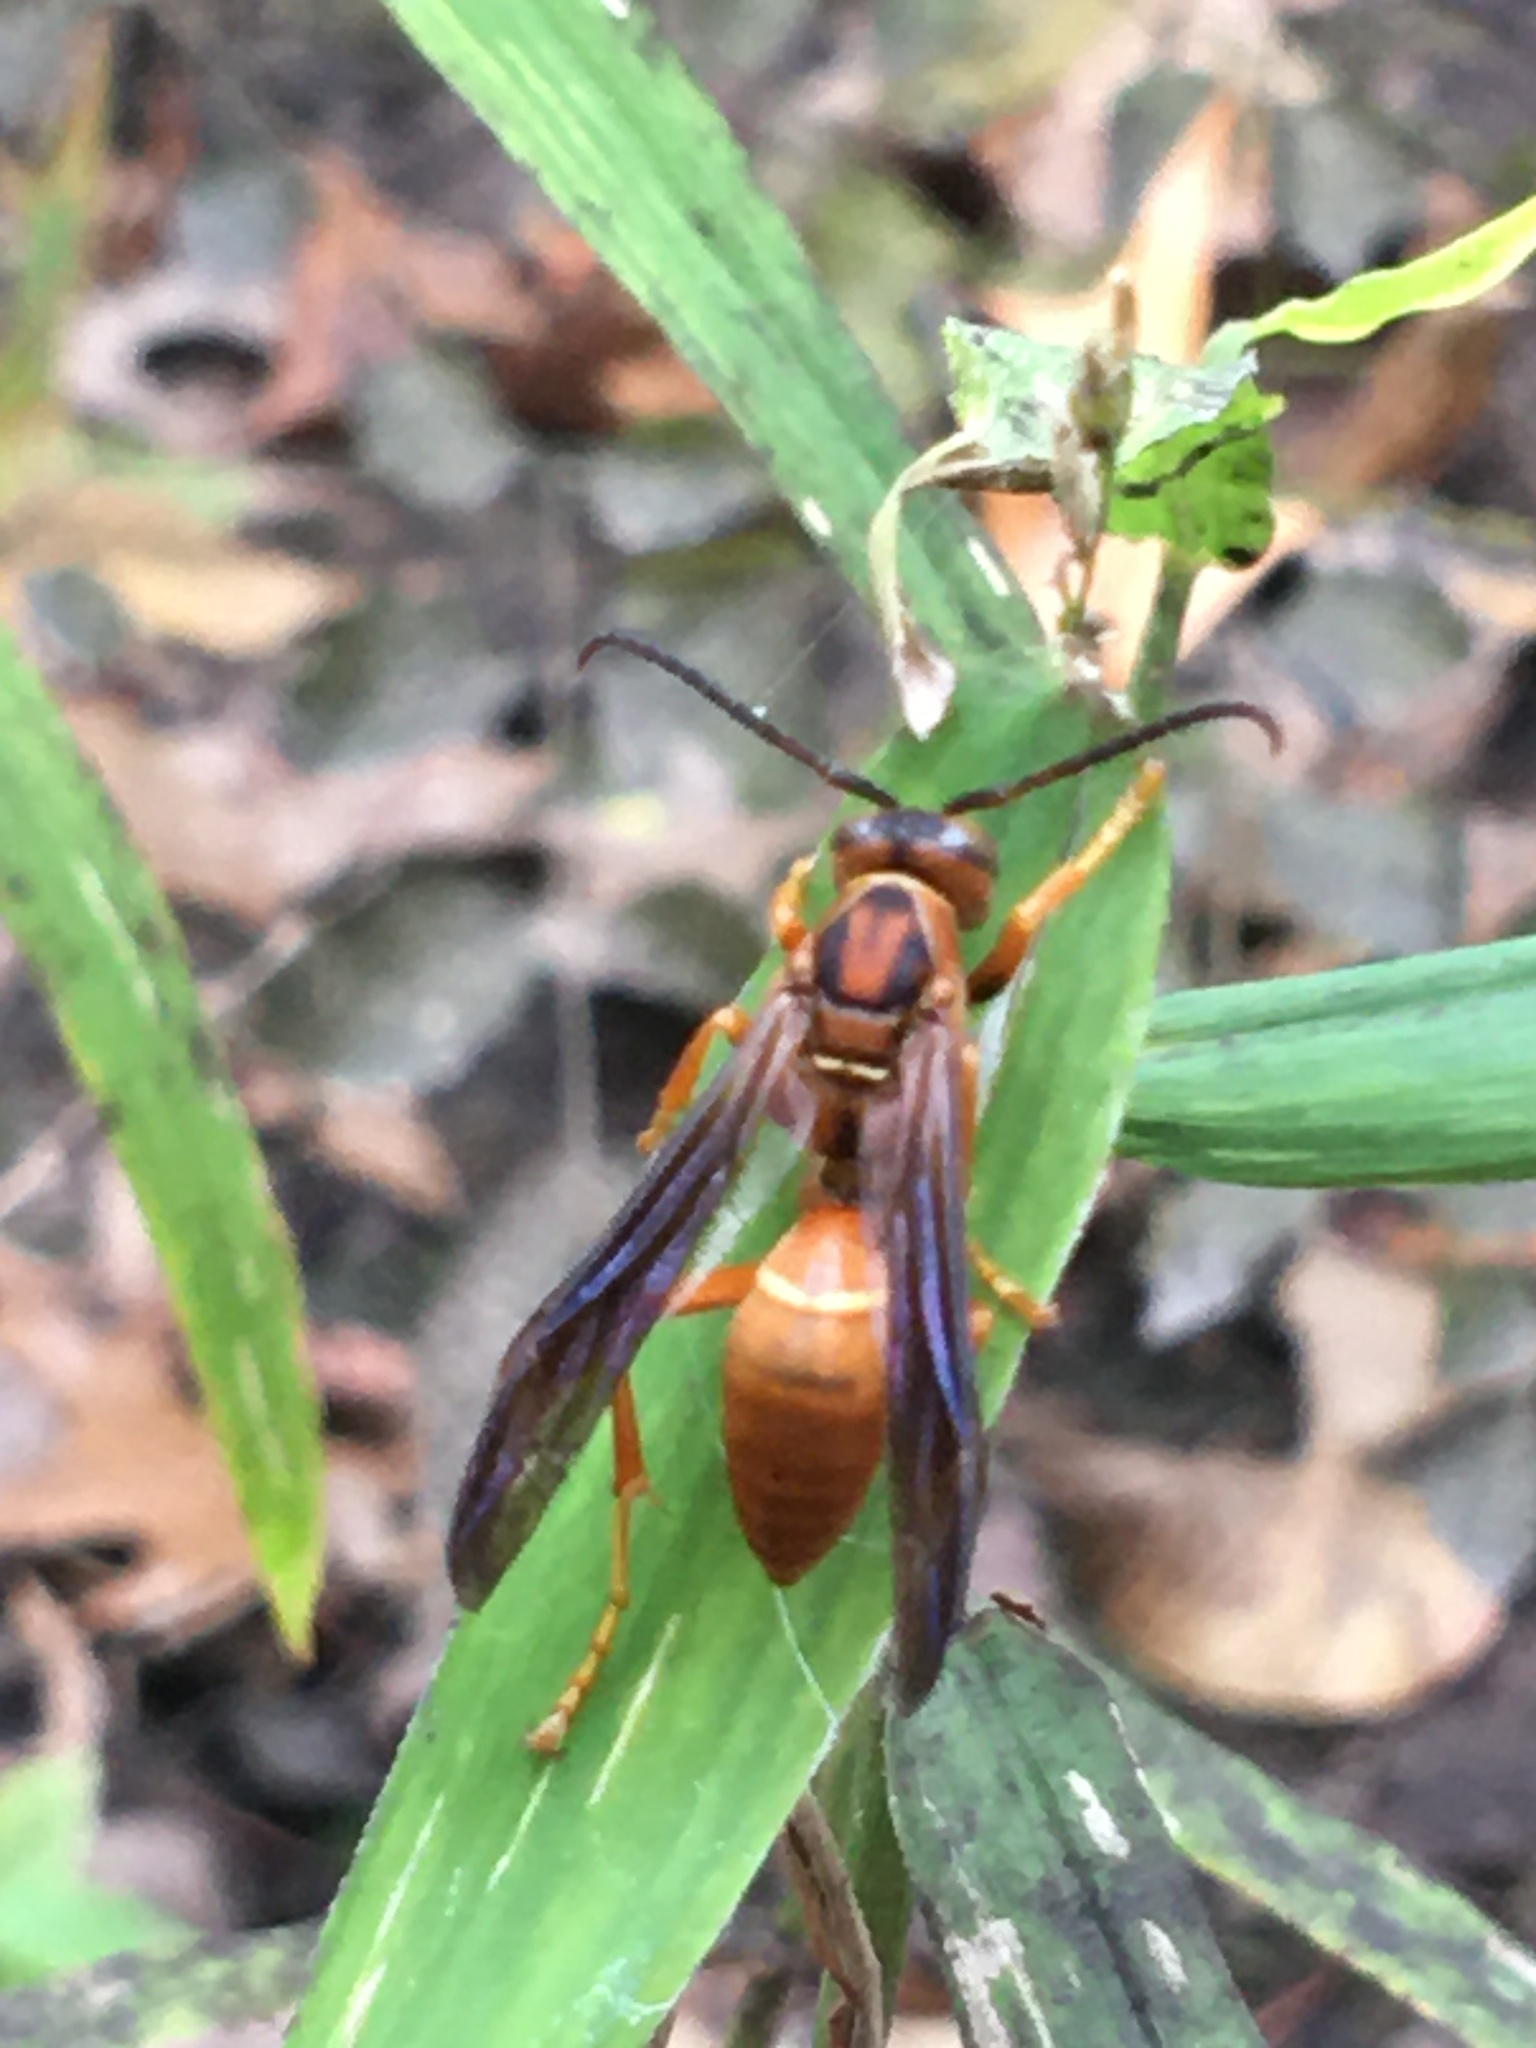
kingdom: Animalia
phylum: Arthropoda
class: Insecta
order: Hymenoptera
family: Eumenidae
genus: Polistes
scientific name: Polistes carolina
